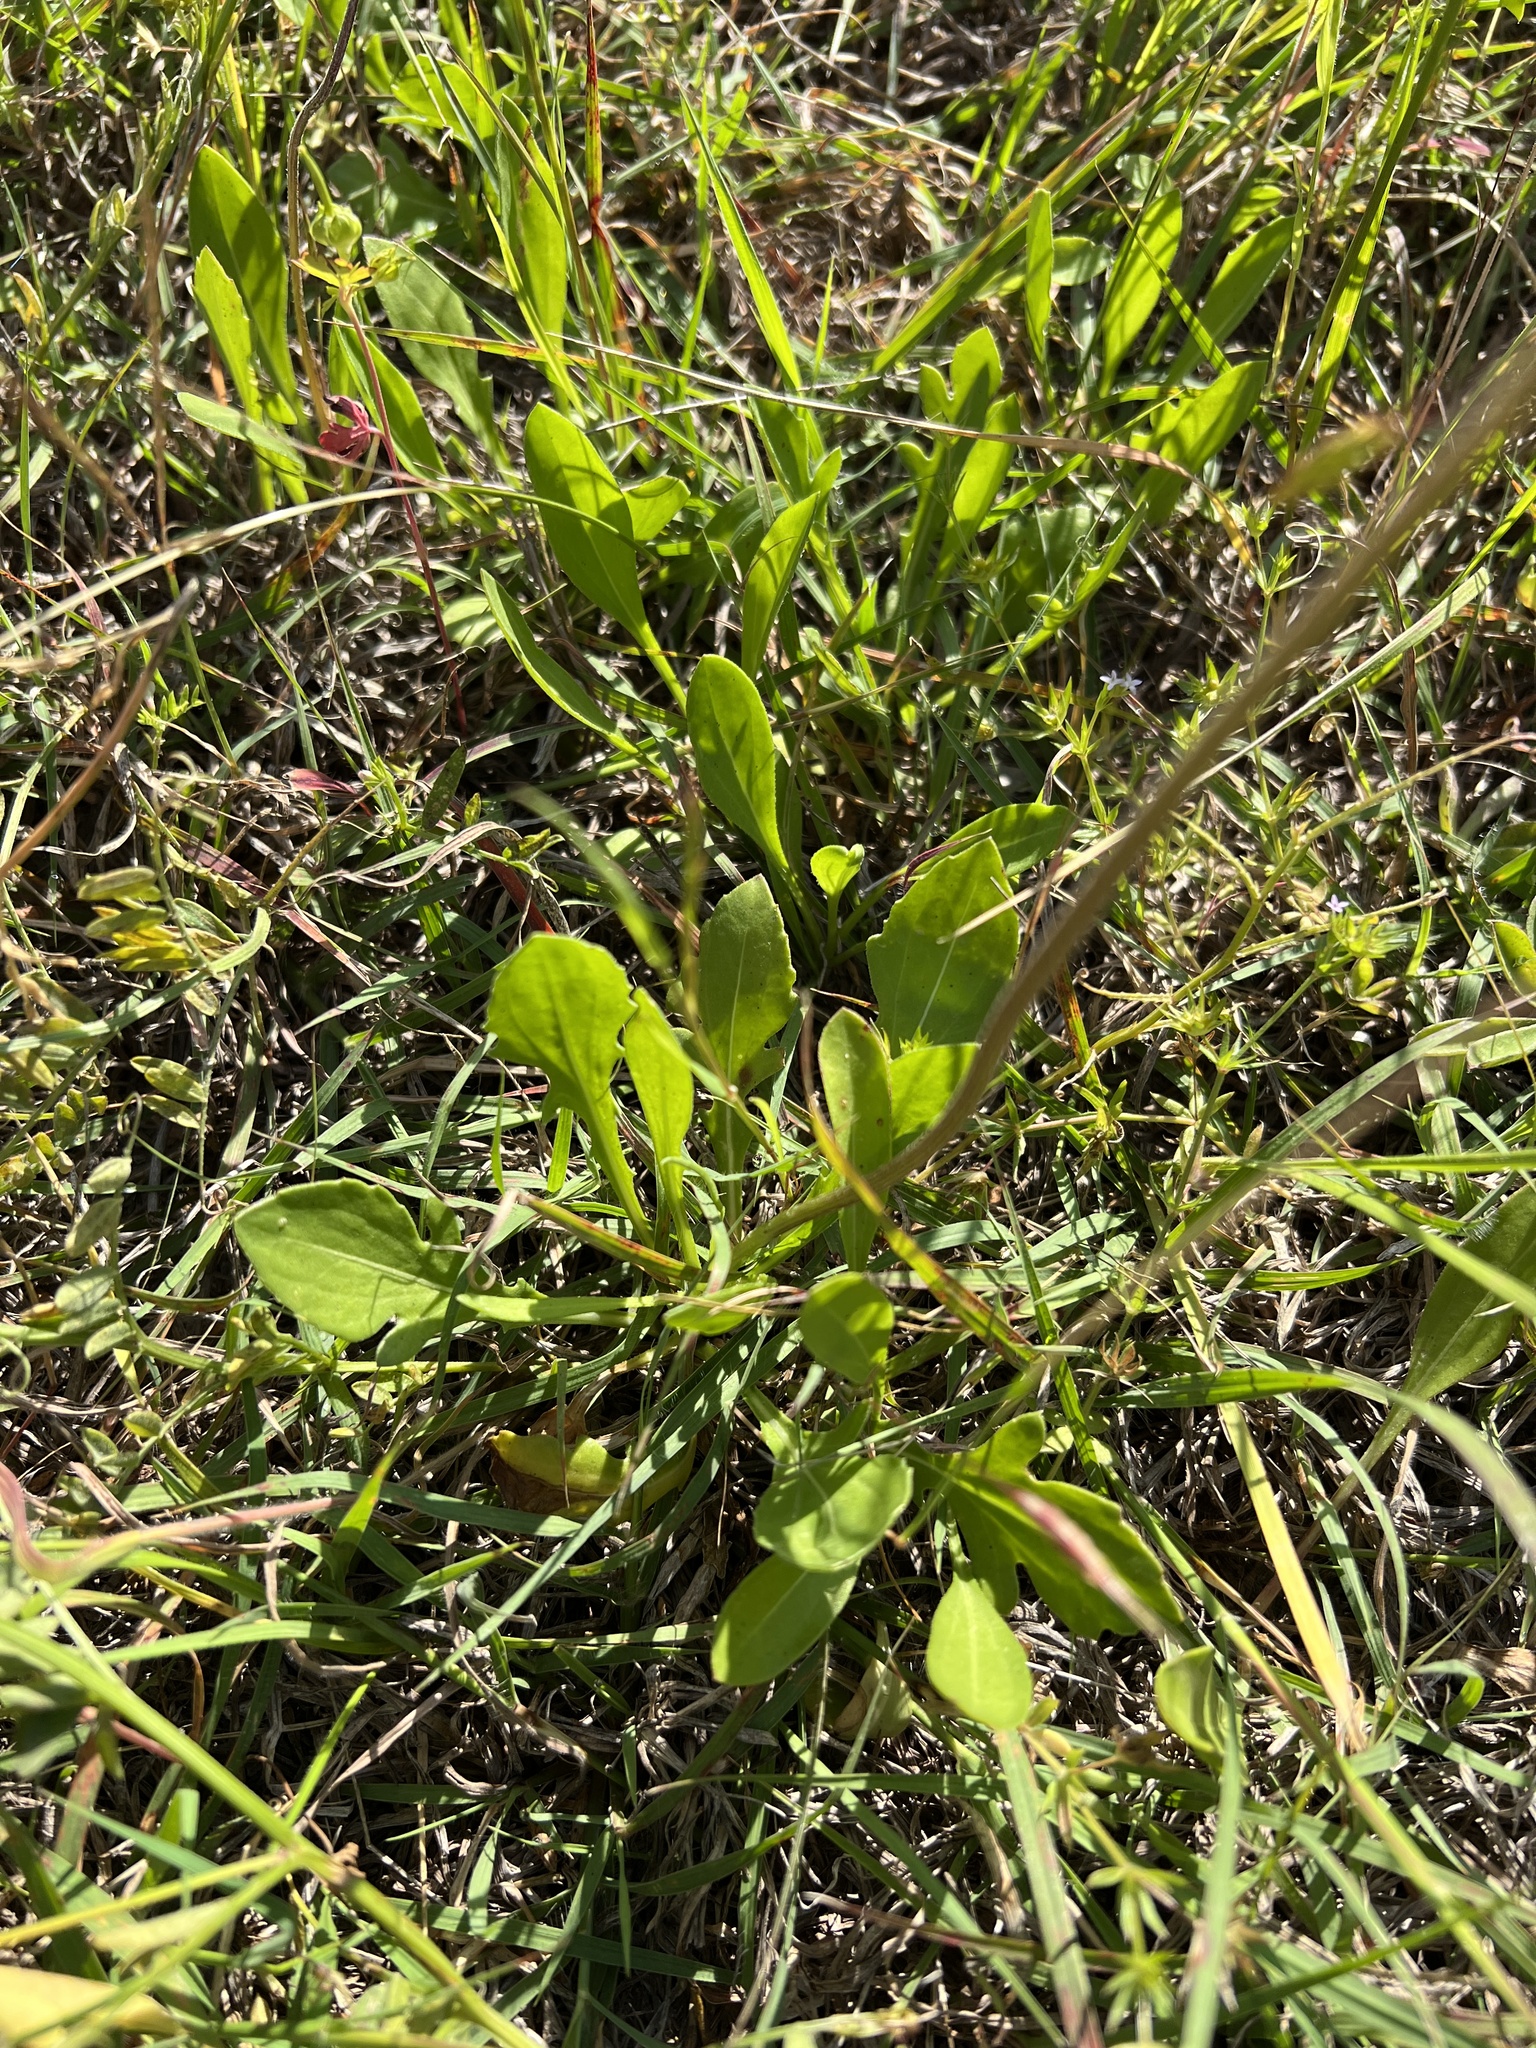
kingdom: Plantae
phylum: Tracheophyta
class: Magnoliopsida
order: Asterales
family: Asteraceae
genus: Gaillardia
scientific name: Gaillardia suavis
